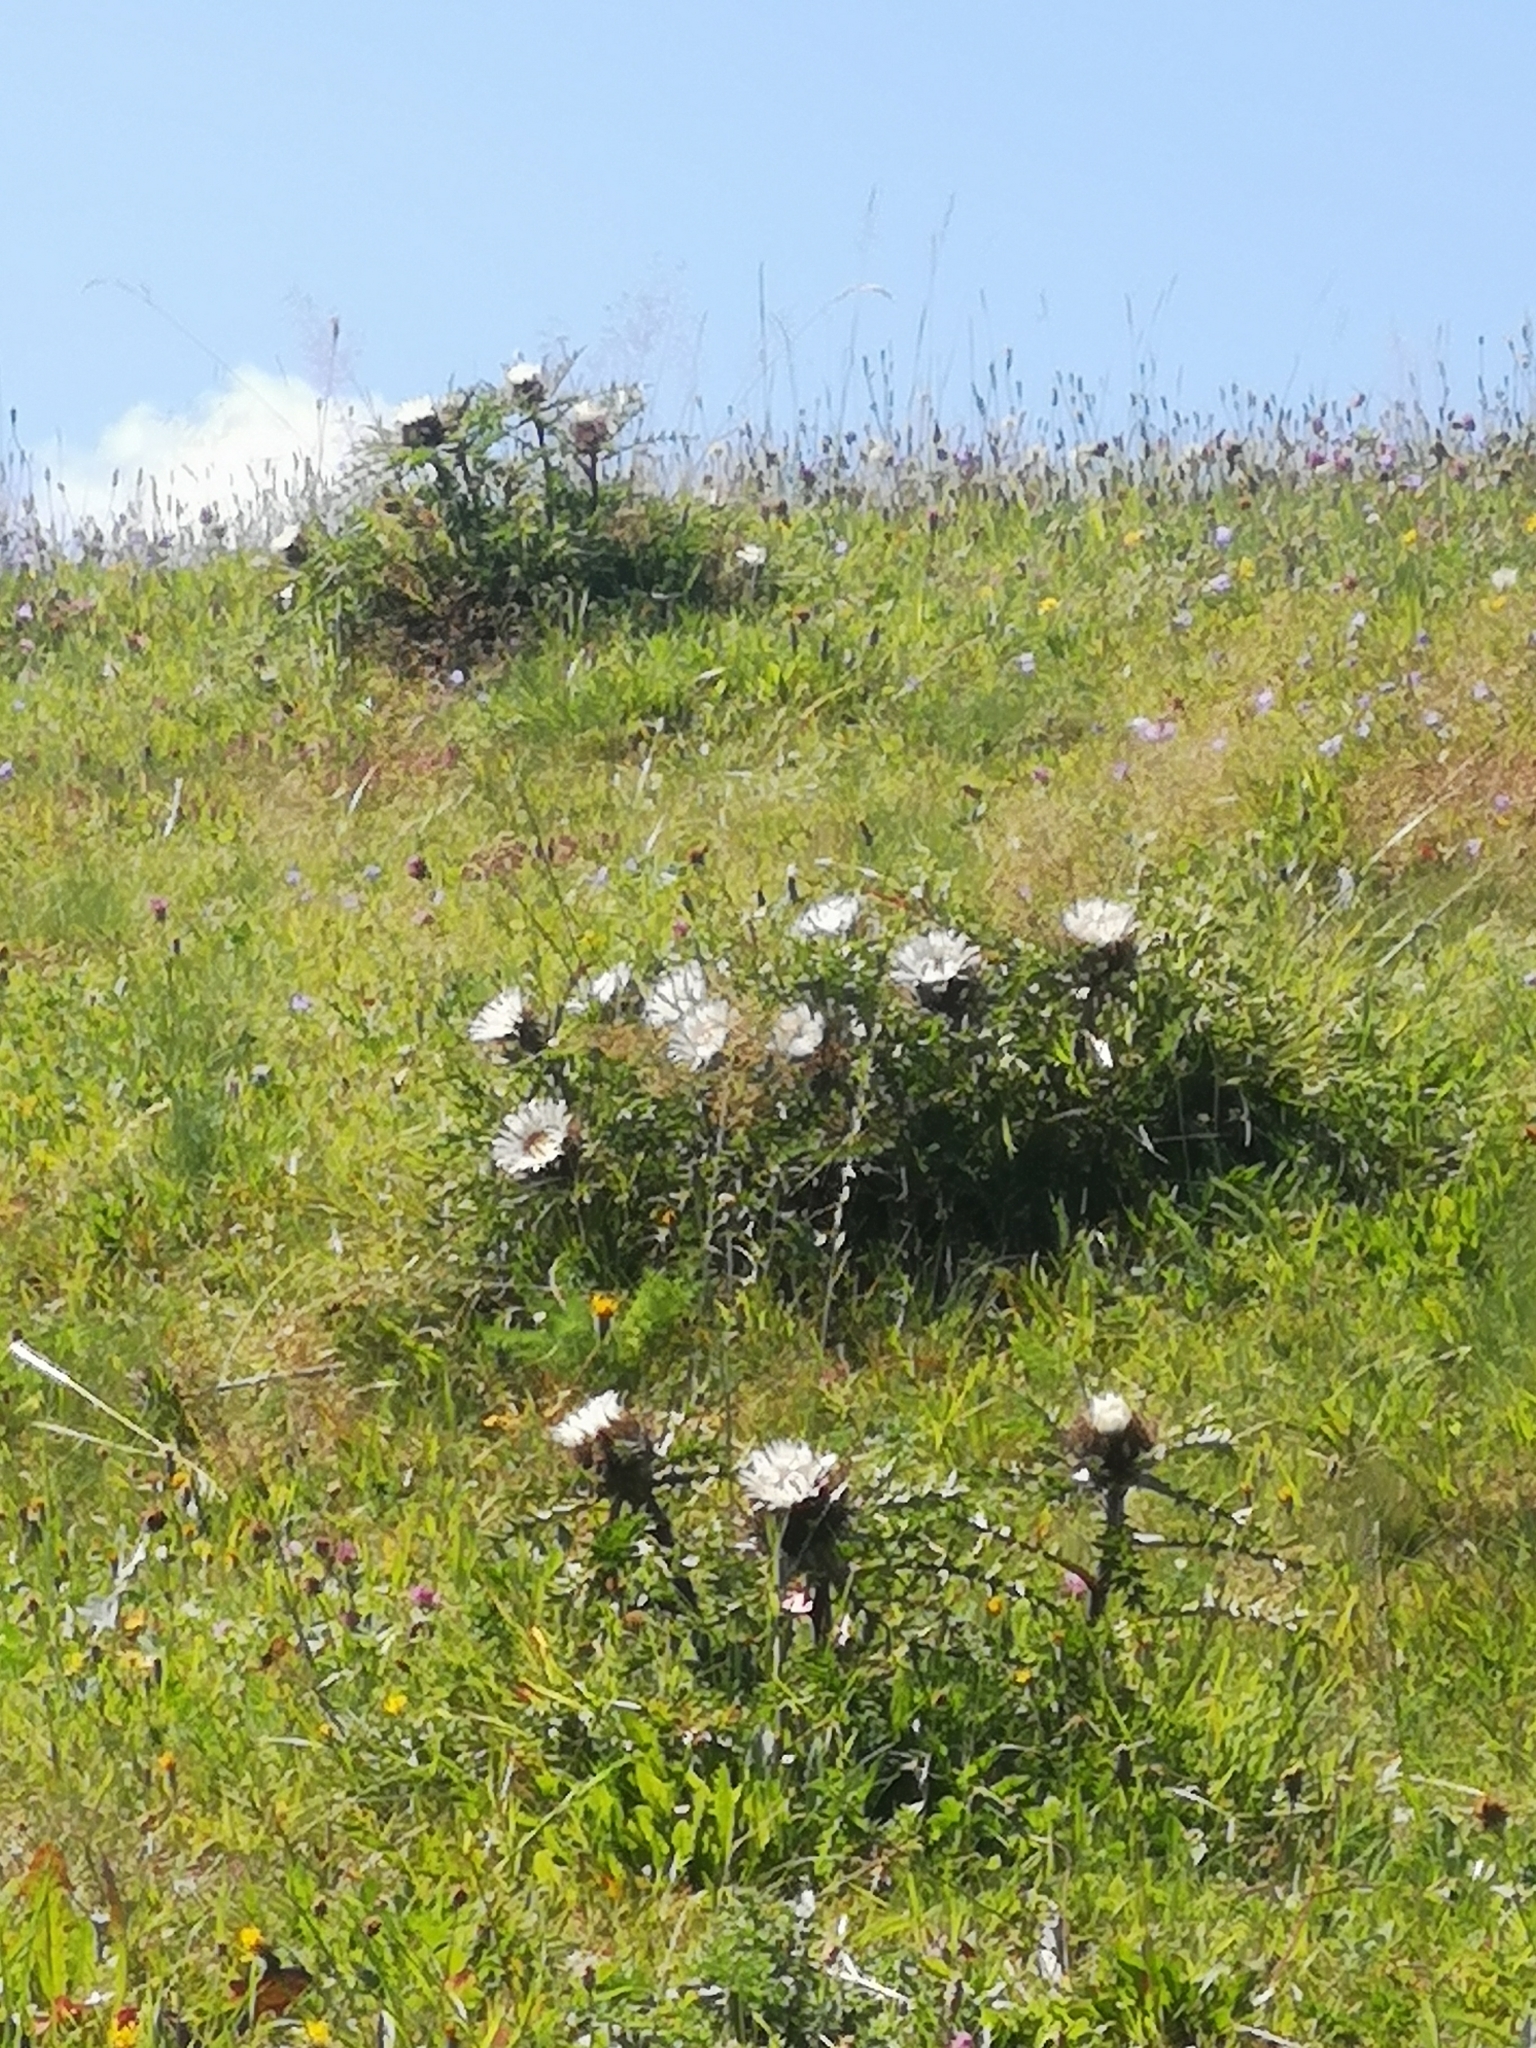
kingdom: Plantae
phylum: Tracheophyta
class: Magnoliopsida
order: Asterales
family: Asteraceae
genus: Carlina
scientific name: Carlina acaulis
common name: Stemless carline thistle
